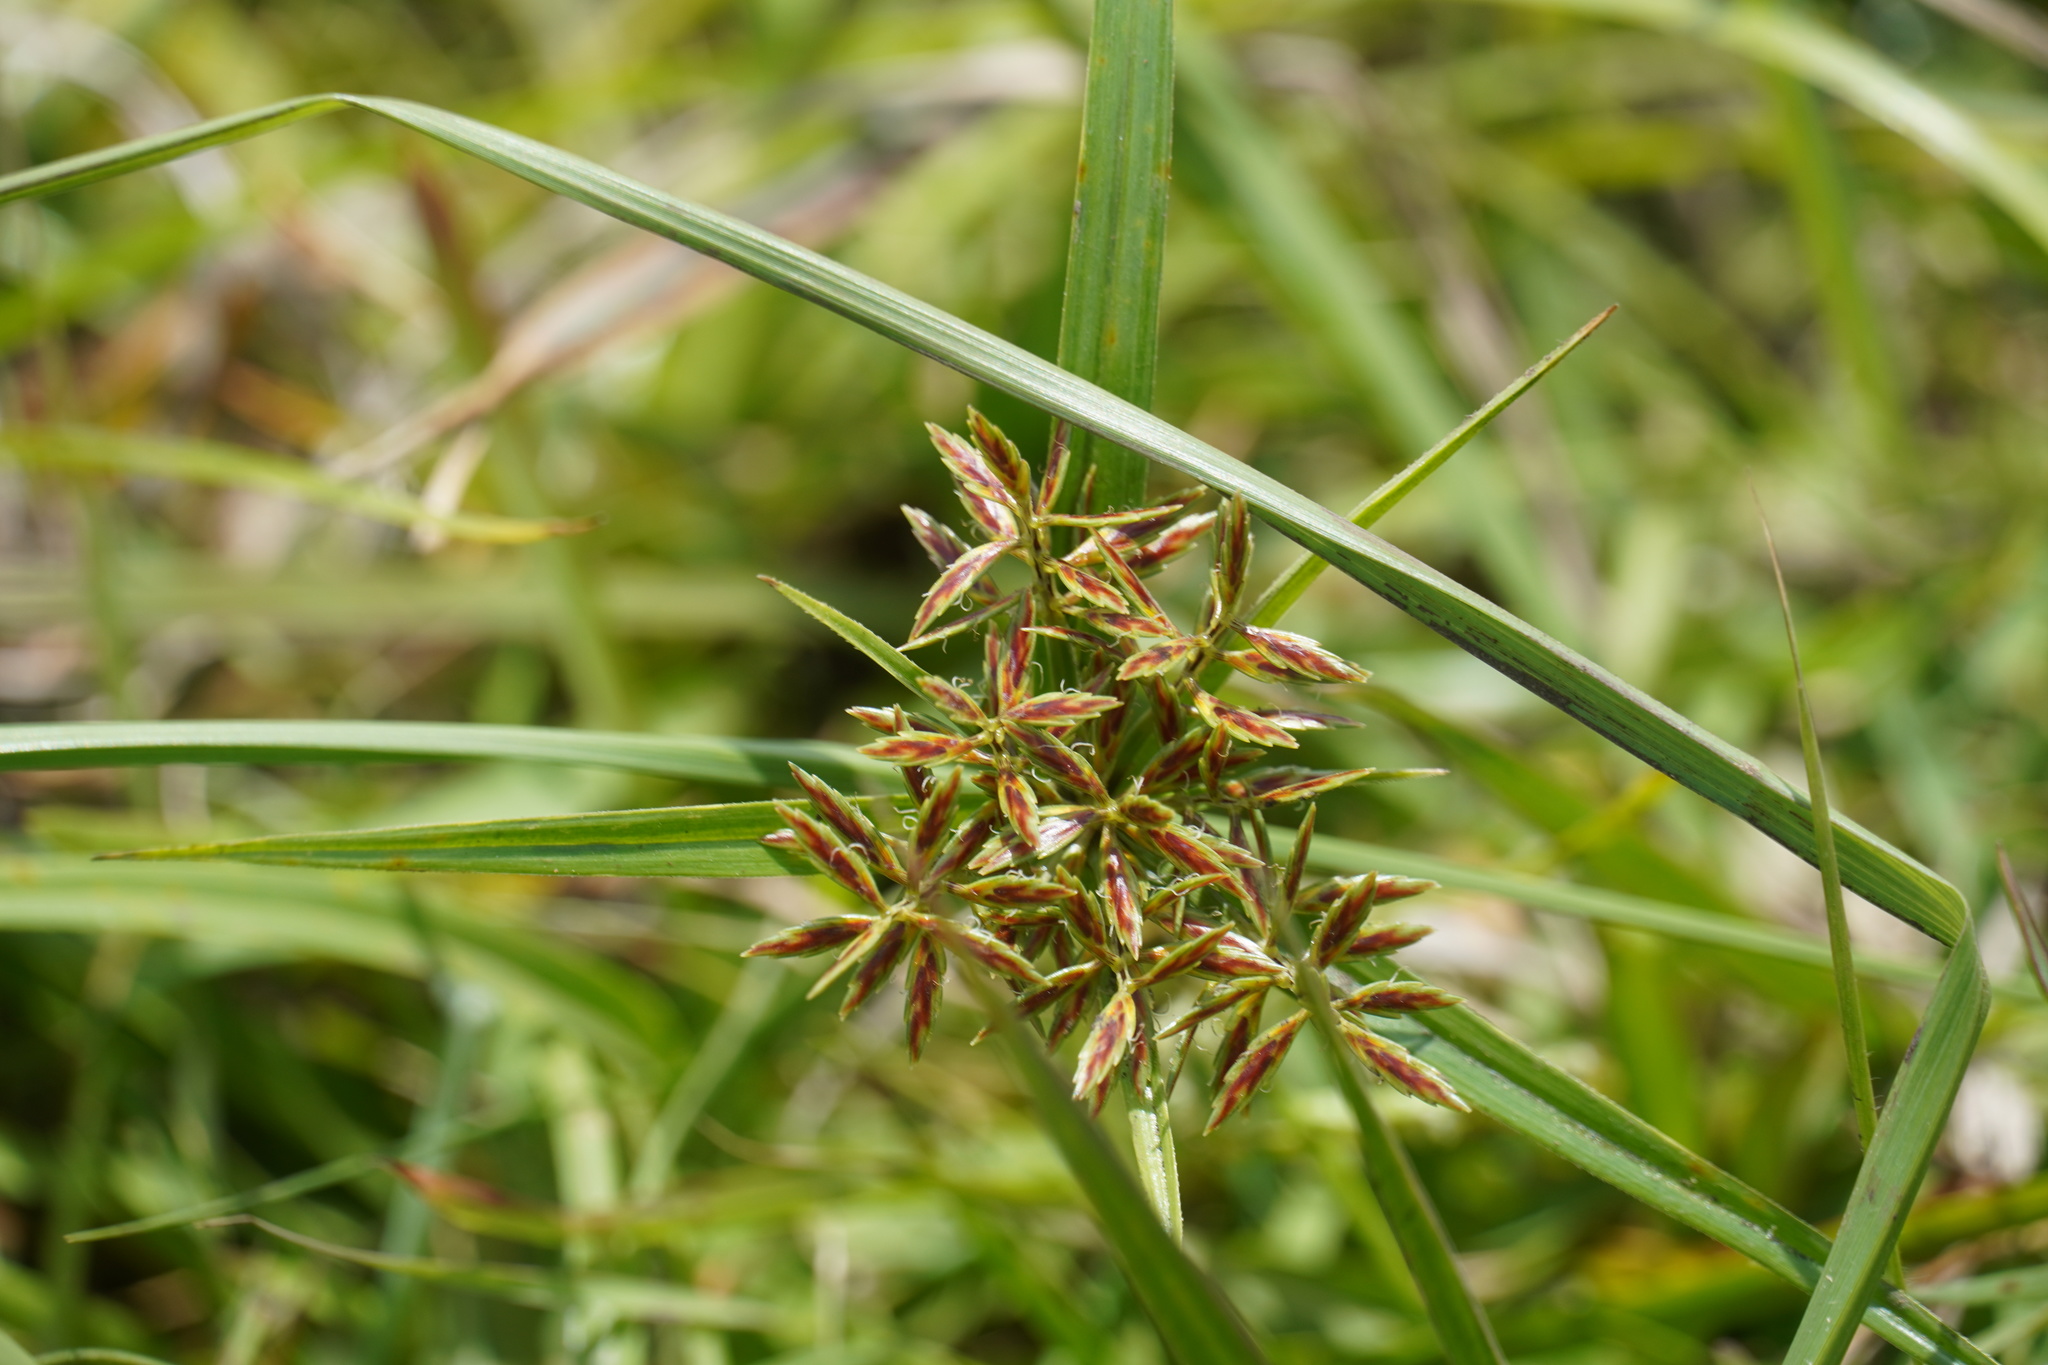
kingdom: Plantae
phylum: Tracheophyta
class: Liliopsida
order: Poales
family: Cyperaceae
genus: Cyperus
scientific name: Cyperus sphaerospermus
